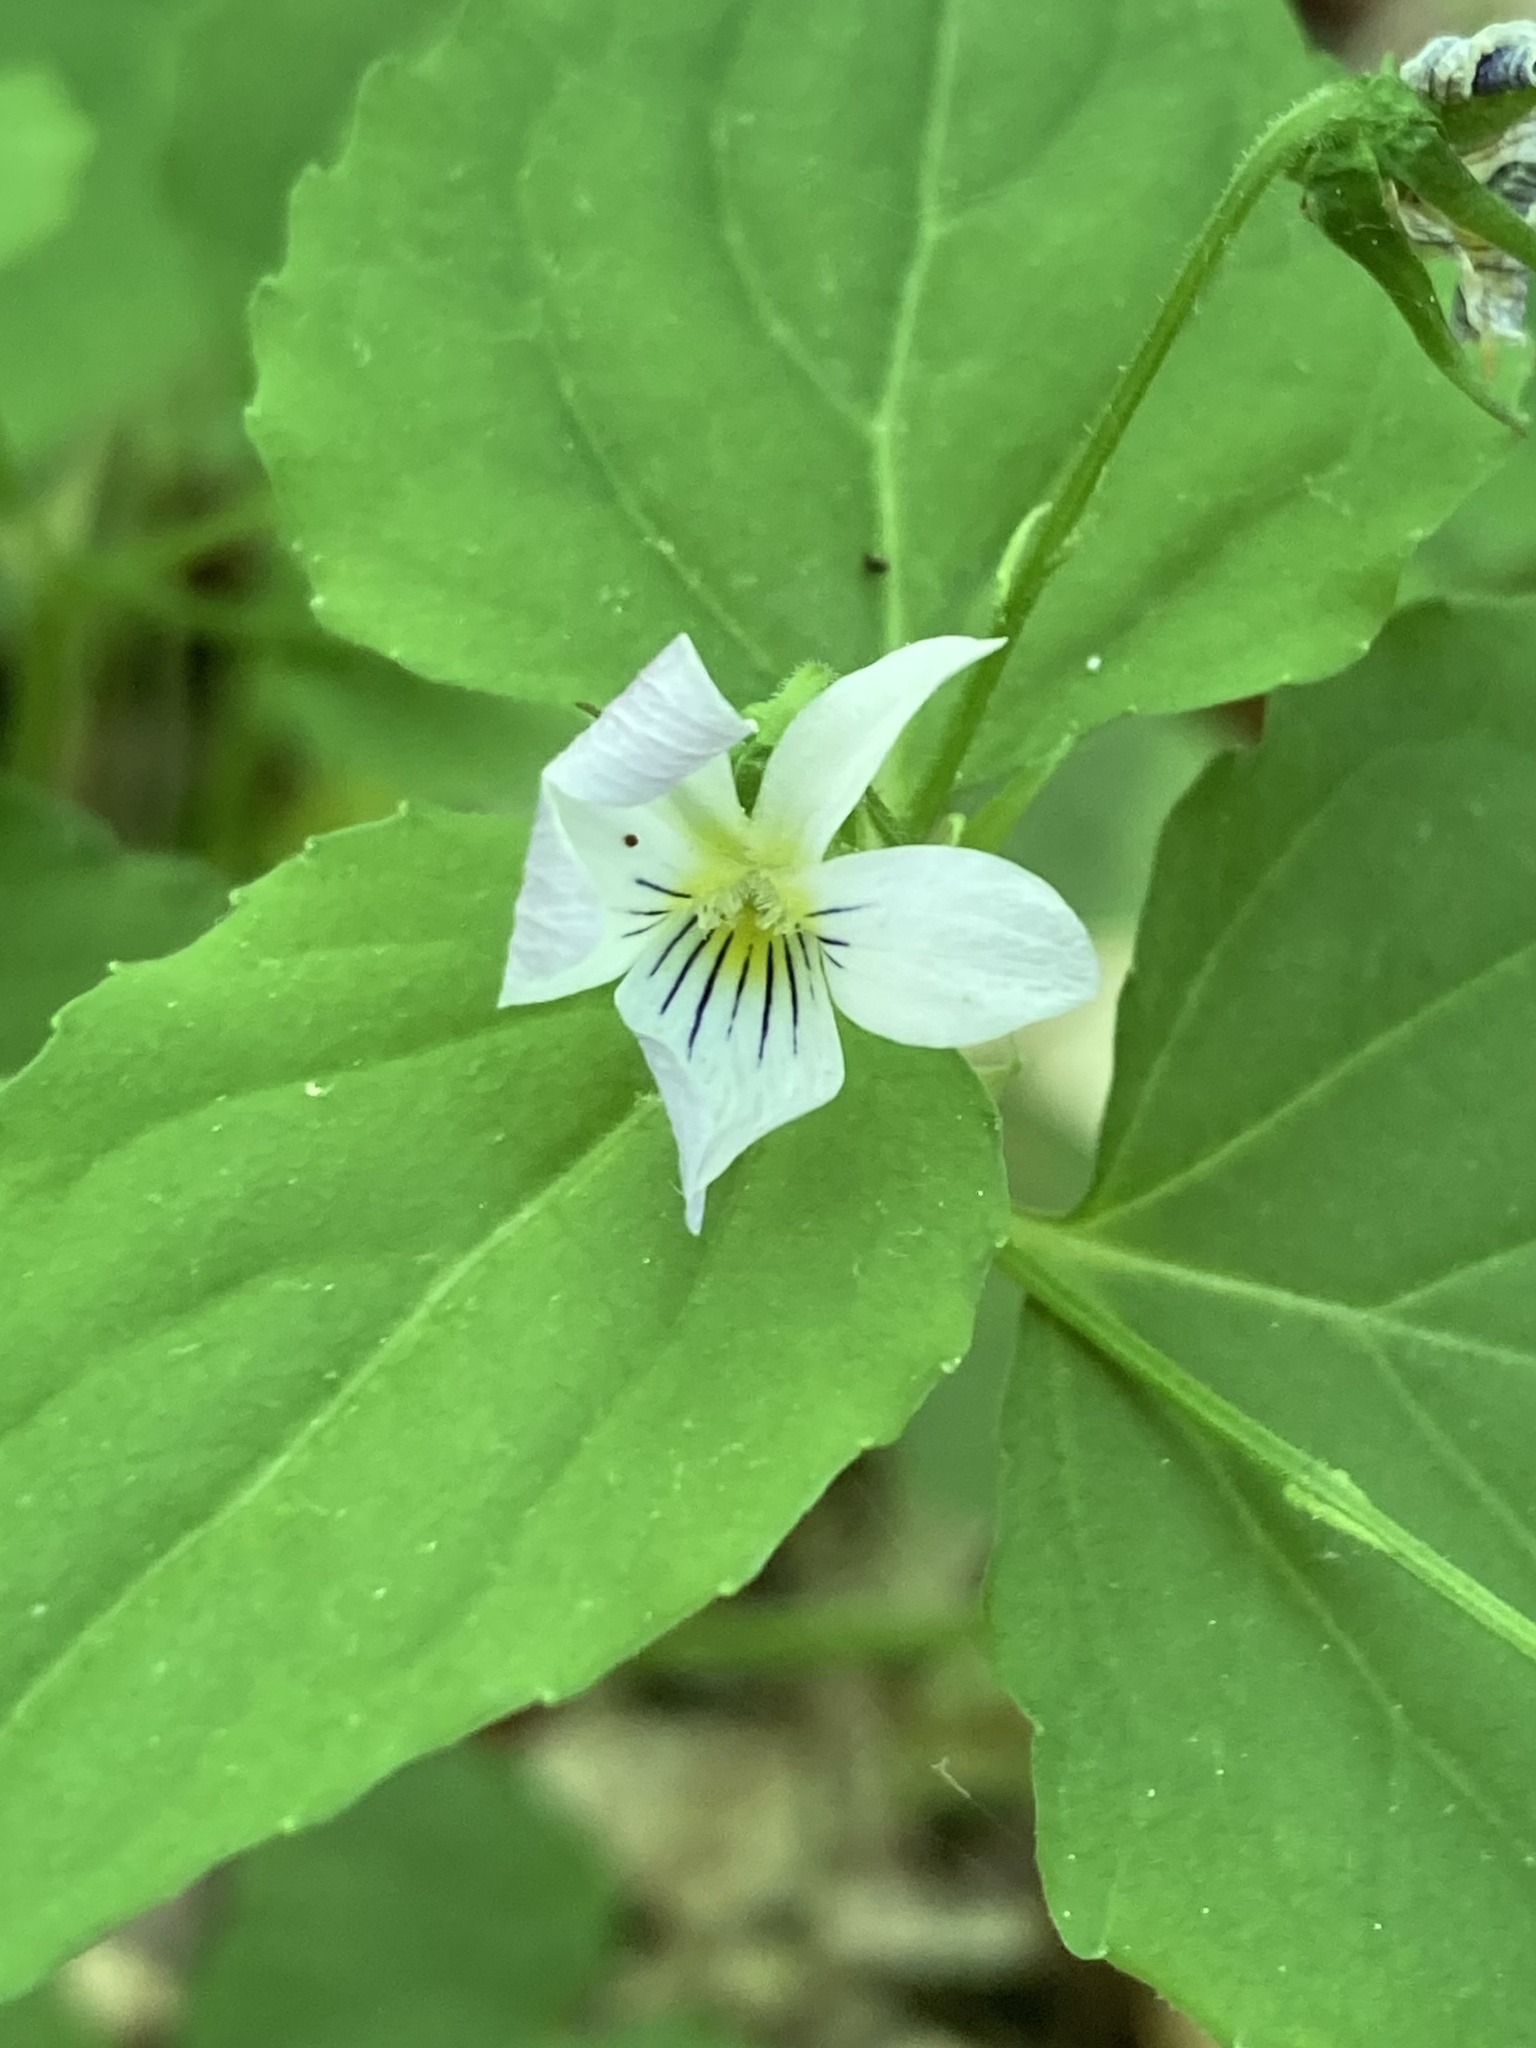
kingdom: Plantae
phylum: Tracheophyta
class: Magnoliopsida
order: Malpighiales
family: Violaceae
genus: Viola
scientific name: Viola canadensis
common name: Canada violet
